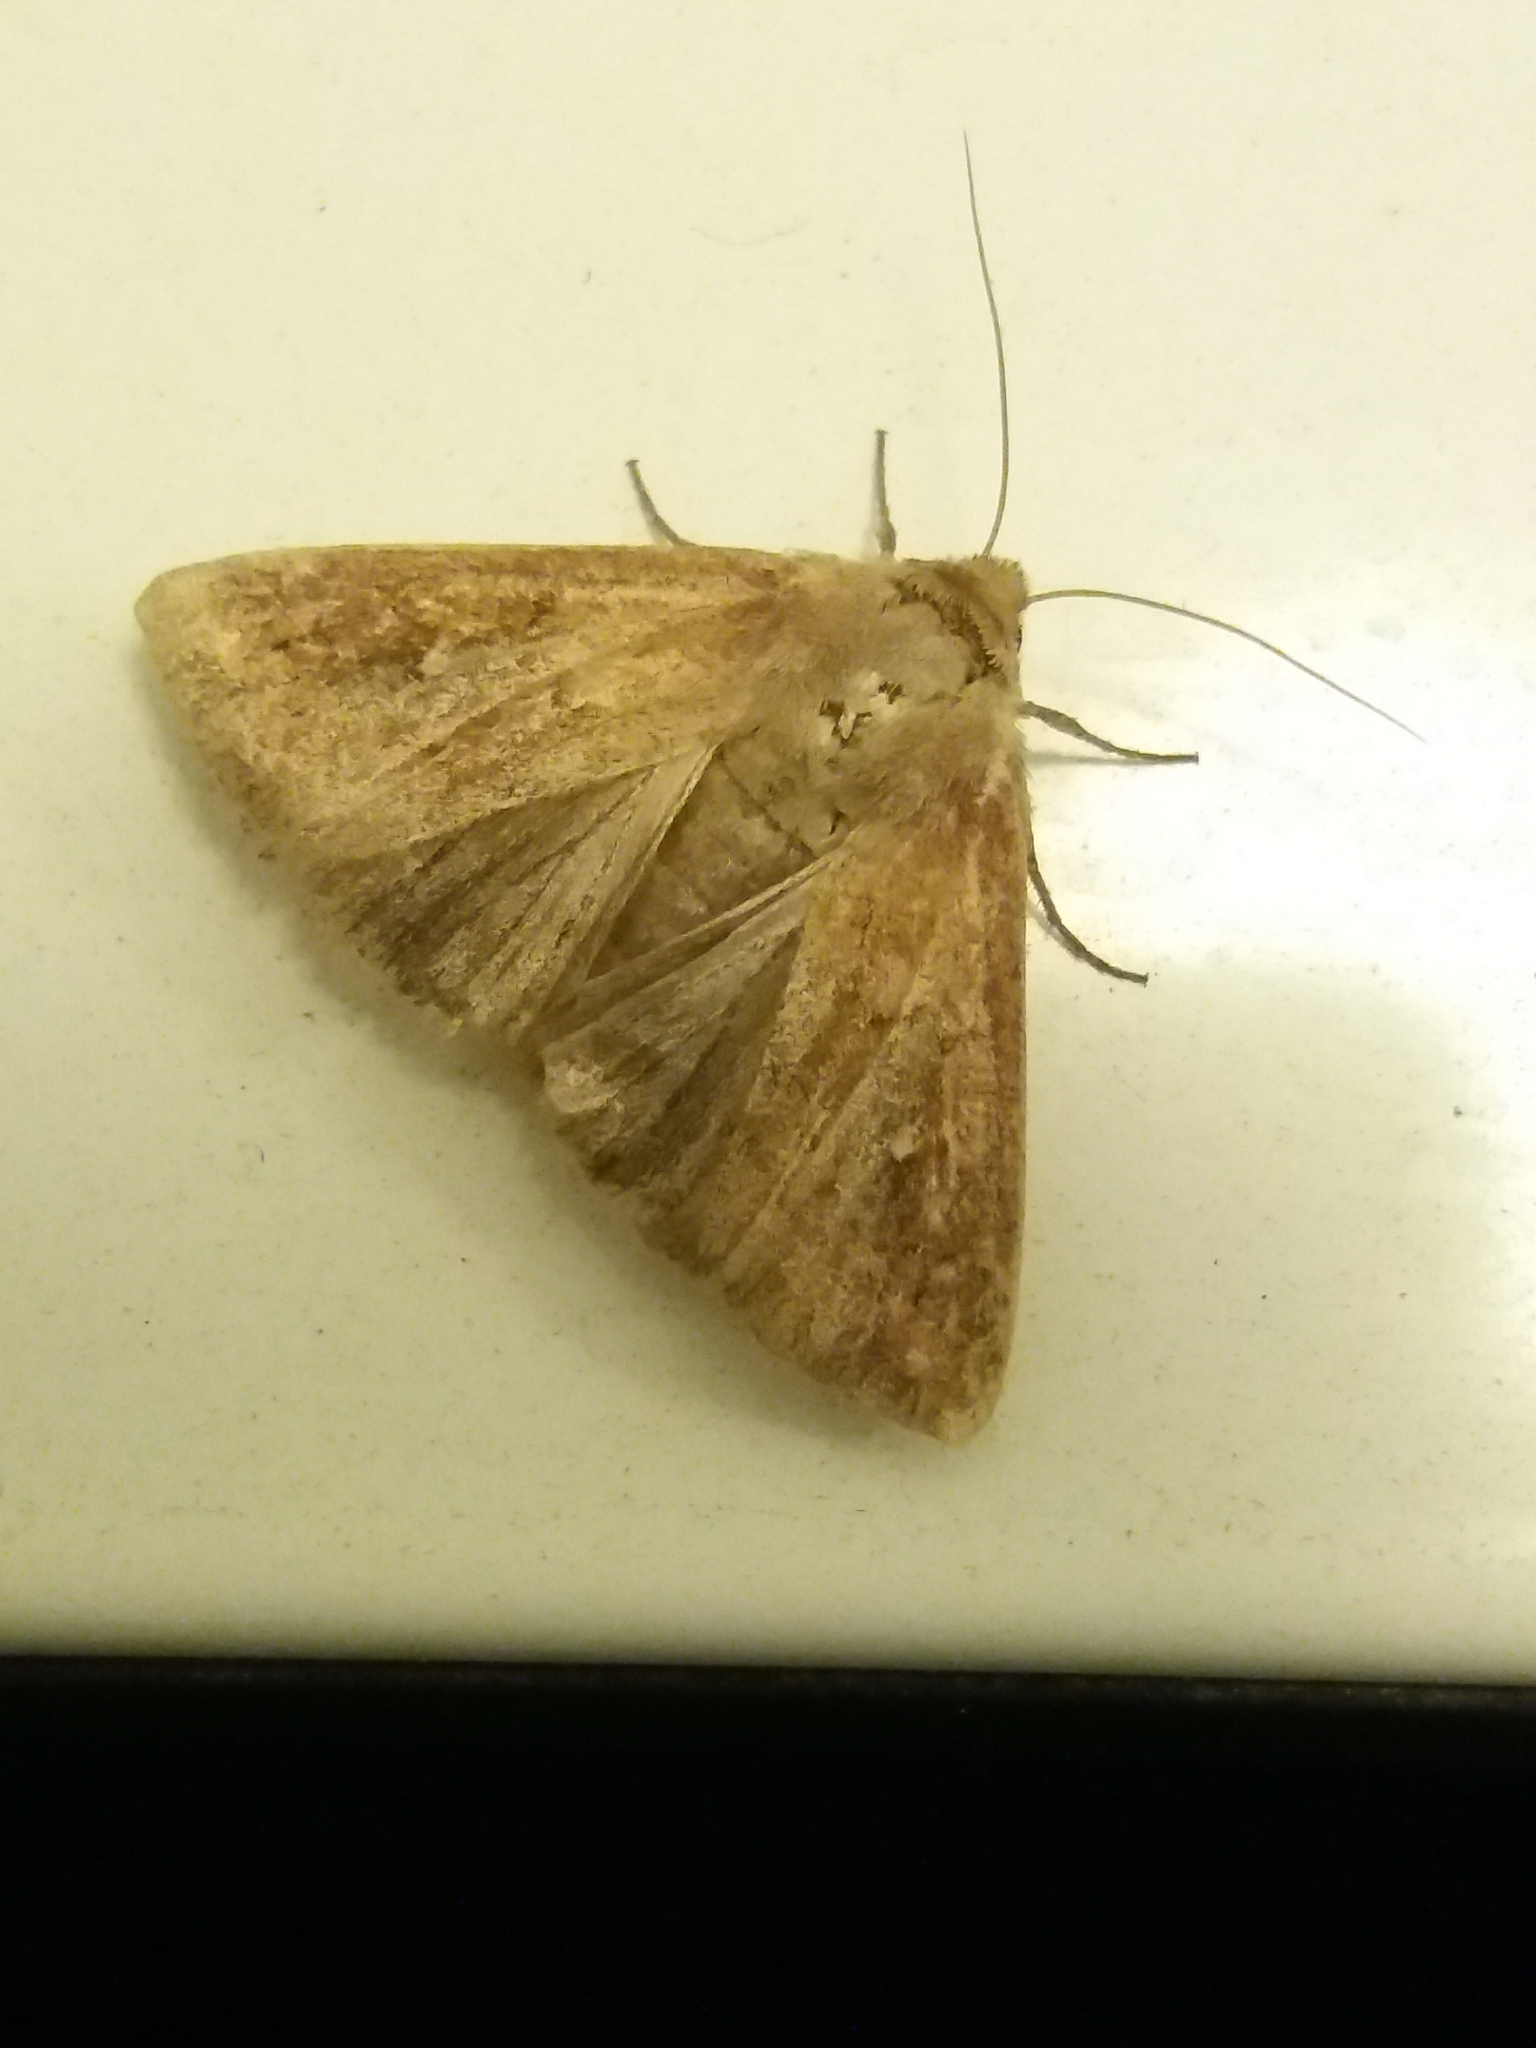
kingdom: Animalia
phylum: Arthropoda
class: Insecta
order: Lepidoptera
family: Noctuidae
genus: Mythimna
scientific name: Mythimna ferrago
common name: Clay
